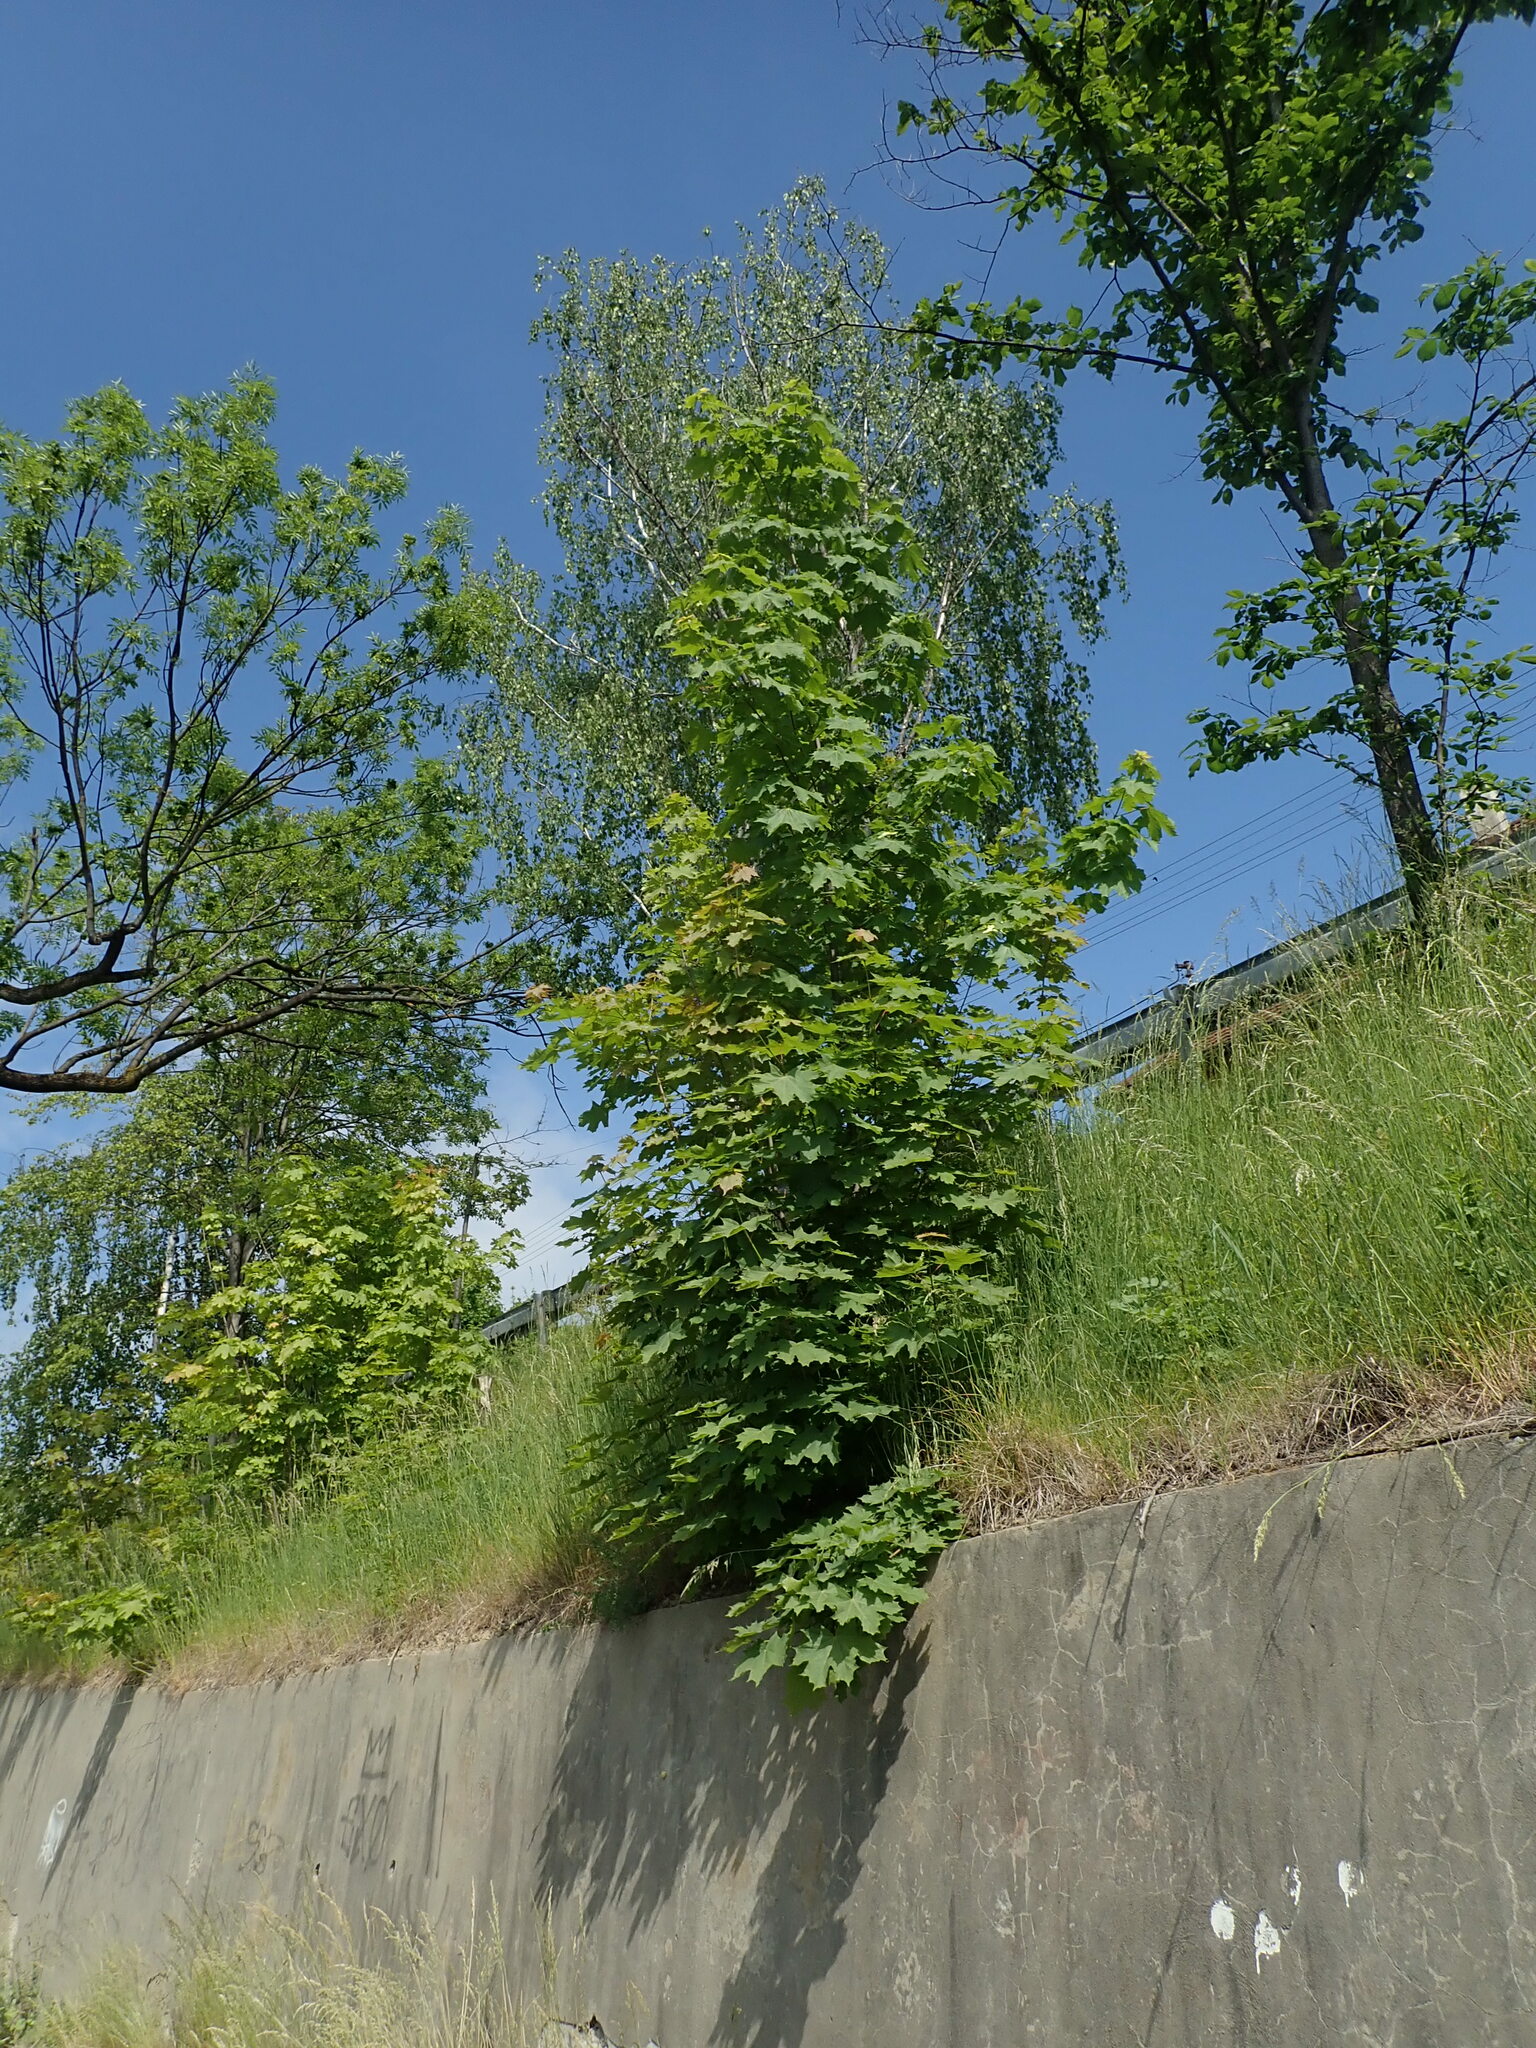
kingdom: Plantae
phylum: Tracheophyta
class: Magnoliopsida
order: Sapindales
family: Sapindaceae
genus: Acer
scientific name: Acer platanoides
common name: Norway maple
